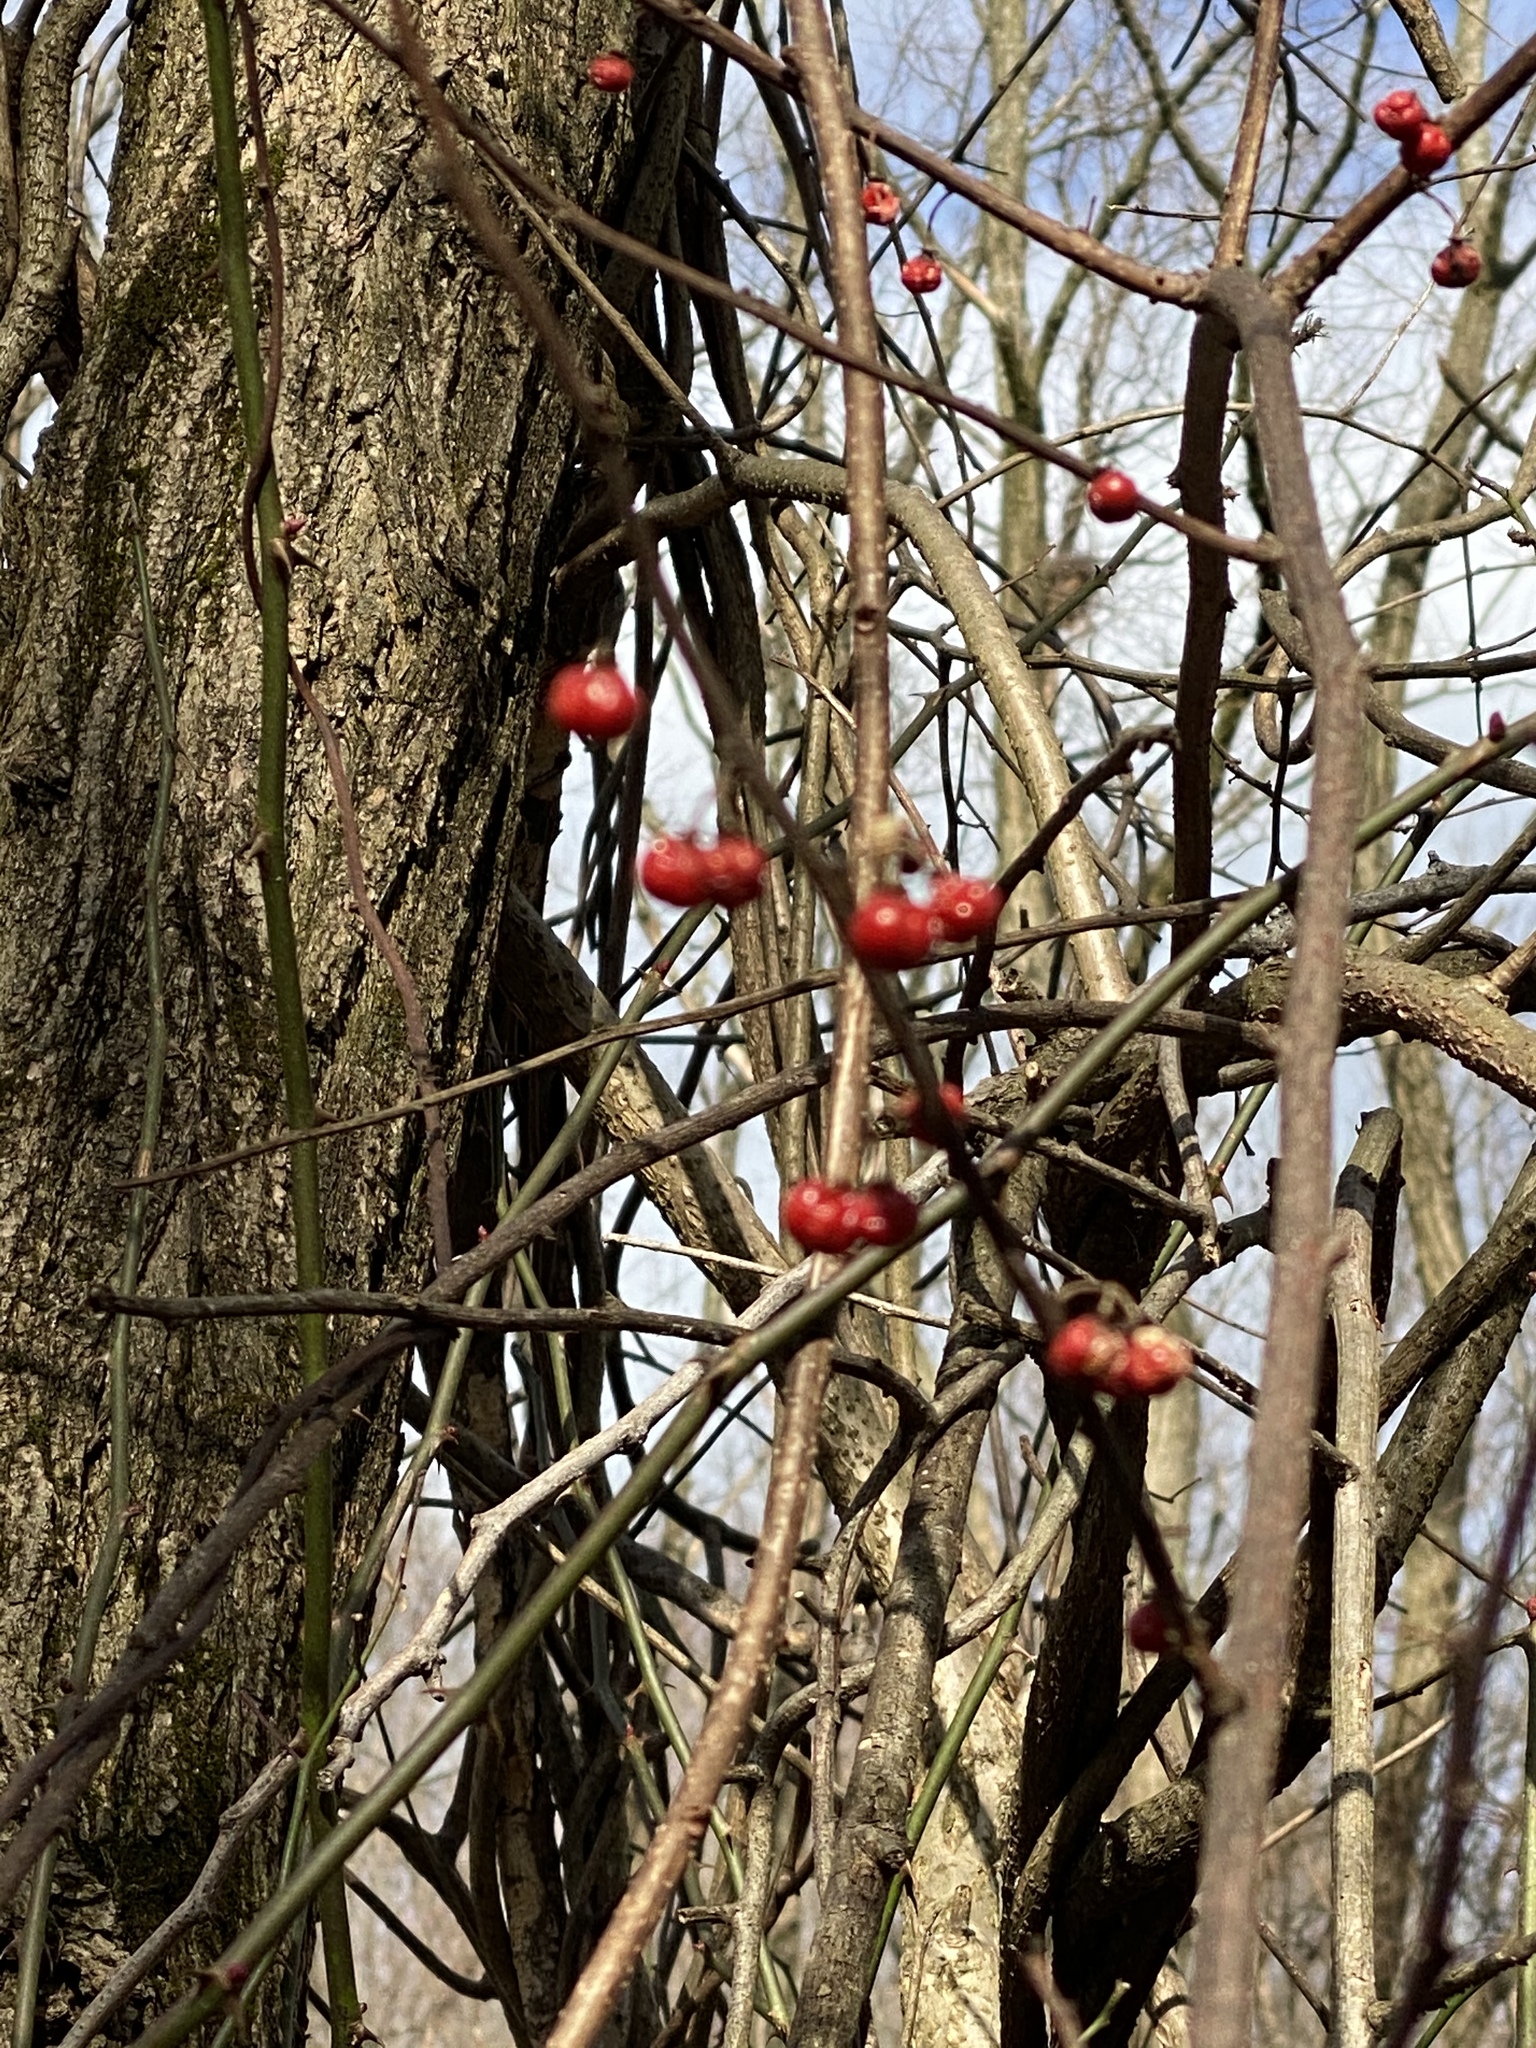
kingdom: Plantae
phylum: Tracheophyta
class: Magnoliopsida
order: Celastrales
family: Celastraceae
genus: Celastrus
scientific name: Celastrus orbiculatus
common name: Oriental bittersweet
